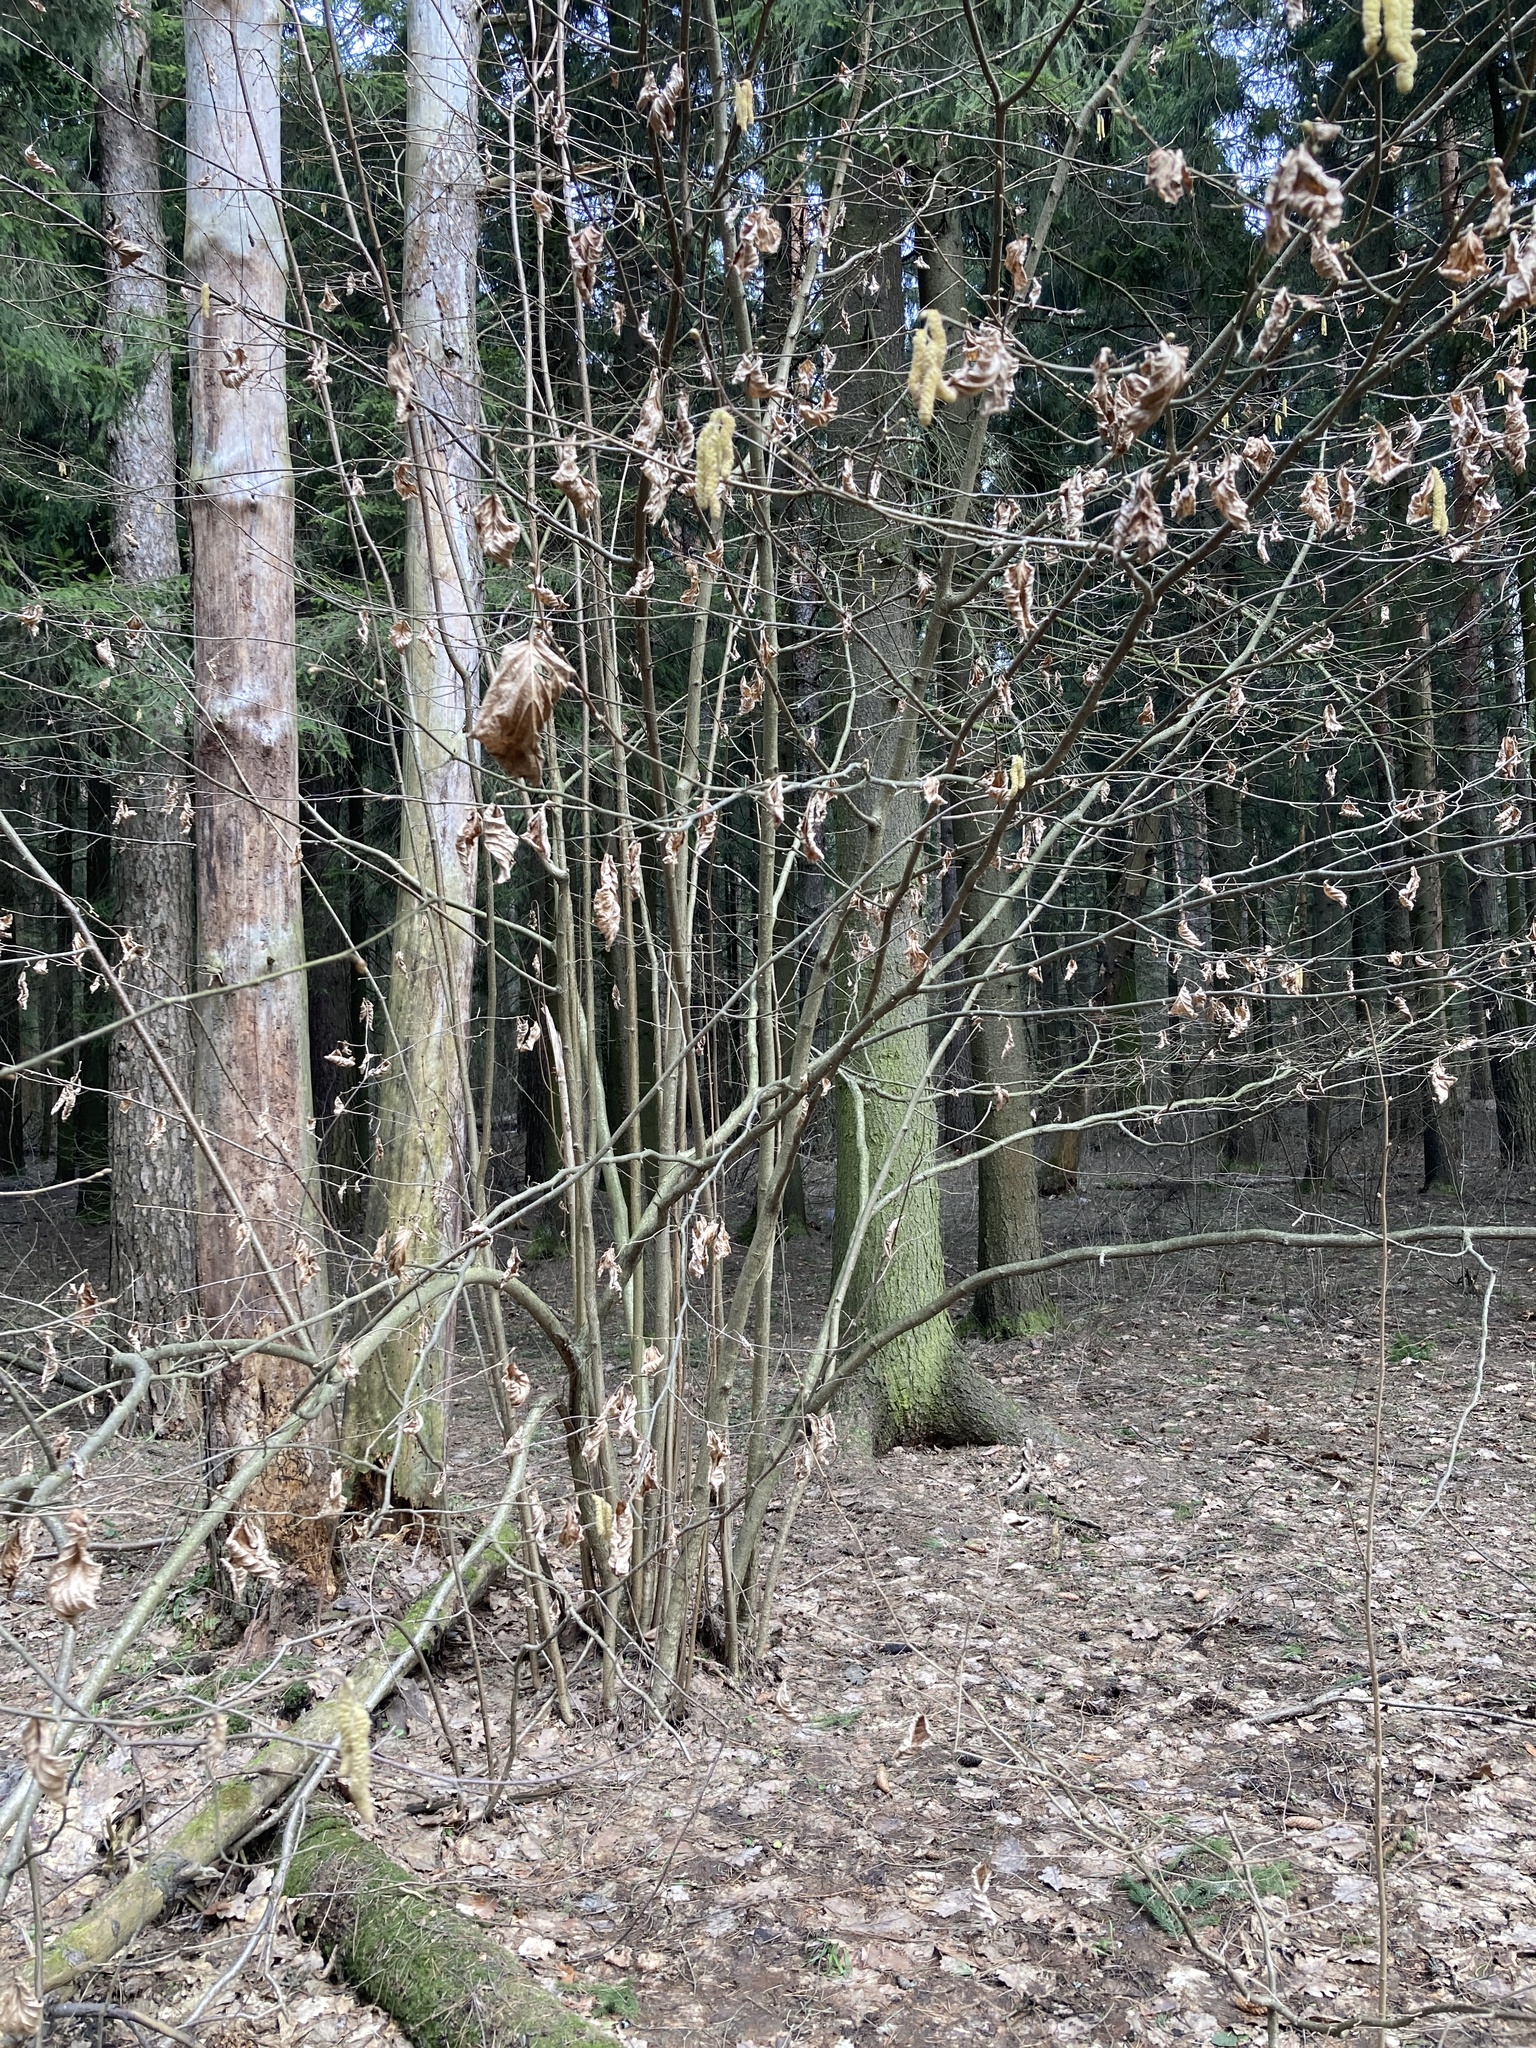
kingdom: Plantae
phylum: Tracheophyta
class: Magnoliopsida
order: Fagales
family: Betulaceae
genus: Corylus
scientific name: Corylus avellana
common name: European hazel
